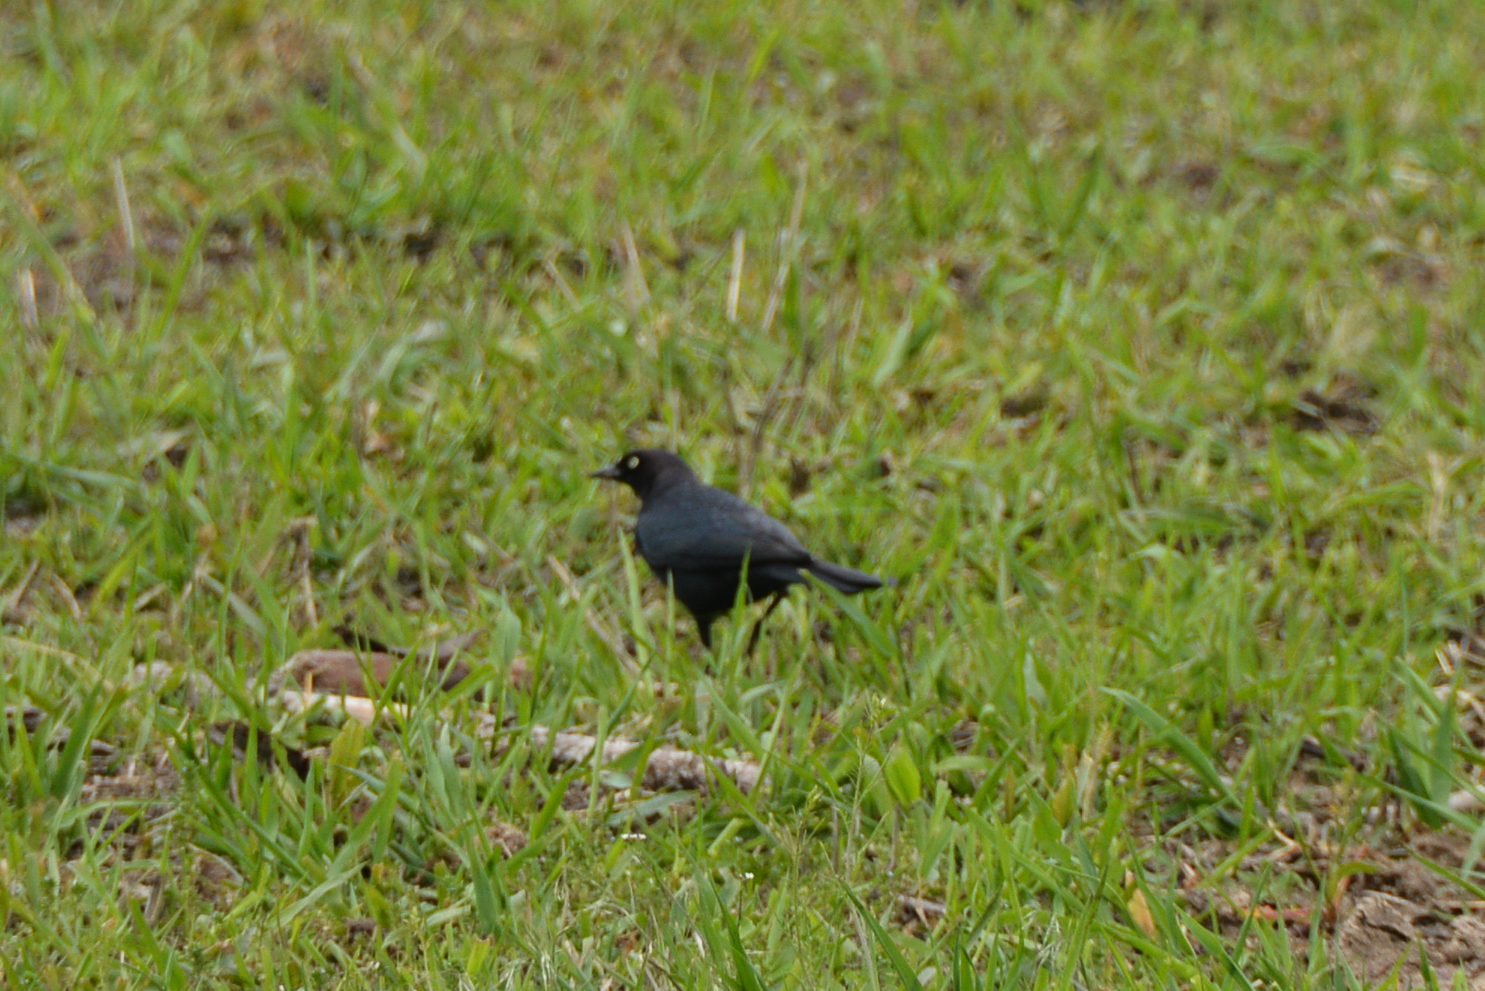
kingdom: Animalia
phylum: Chordata
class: Aves
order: Passeriformes
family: Icteridae
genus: Euphagus
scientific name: Euphagus cyanocephalus
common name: Brewer's blackbird
